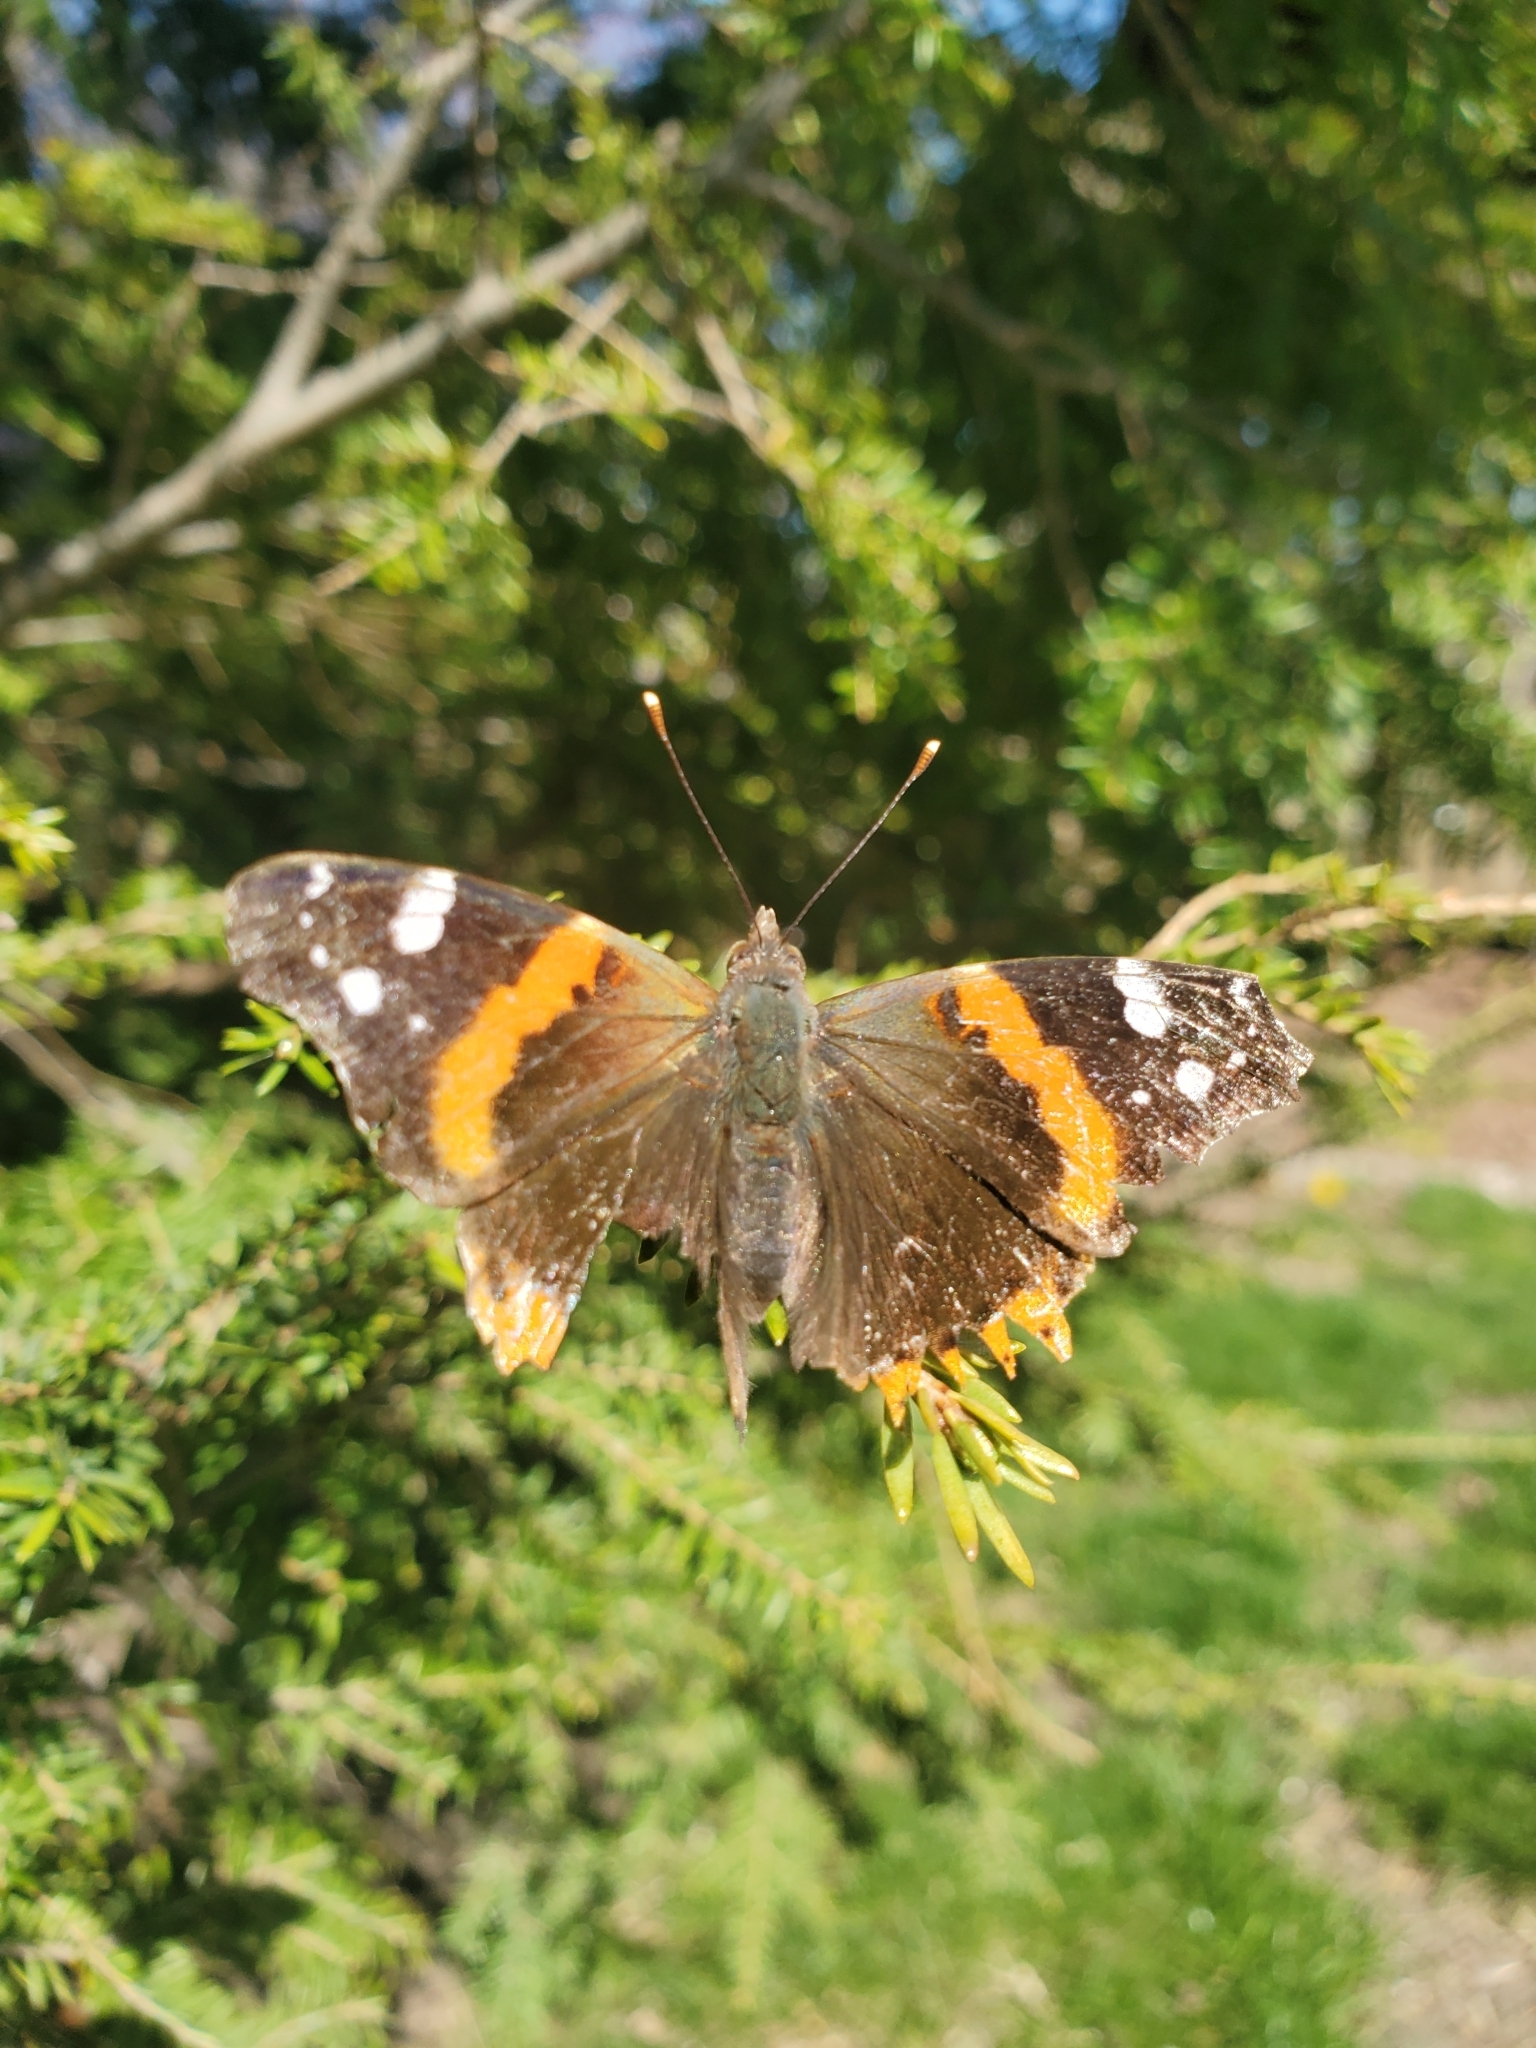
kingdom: Animalia
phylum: Arthropoda
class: Insecta
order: Lepidoptera
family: Nymphalidae
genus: Vanessa
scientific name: Vanessa atalanta
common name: Red admiral
